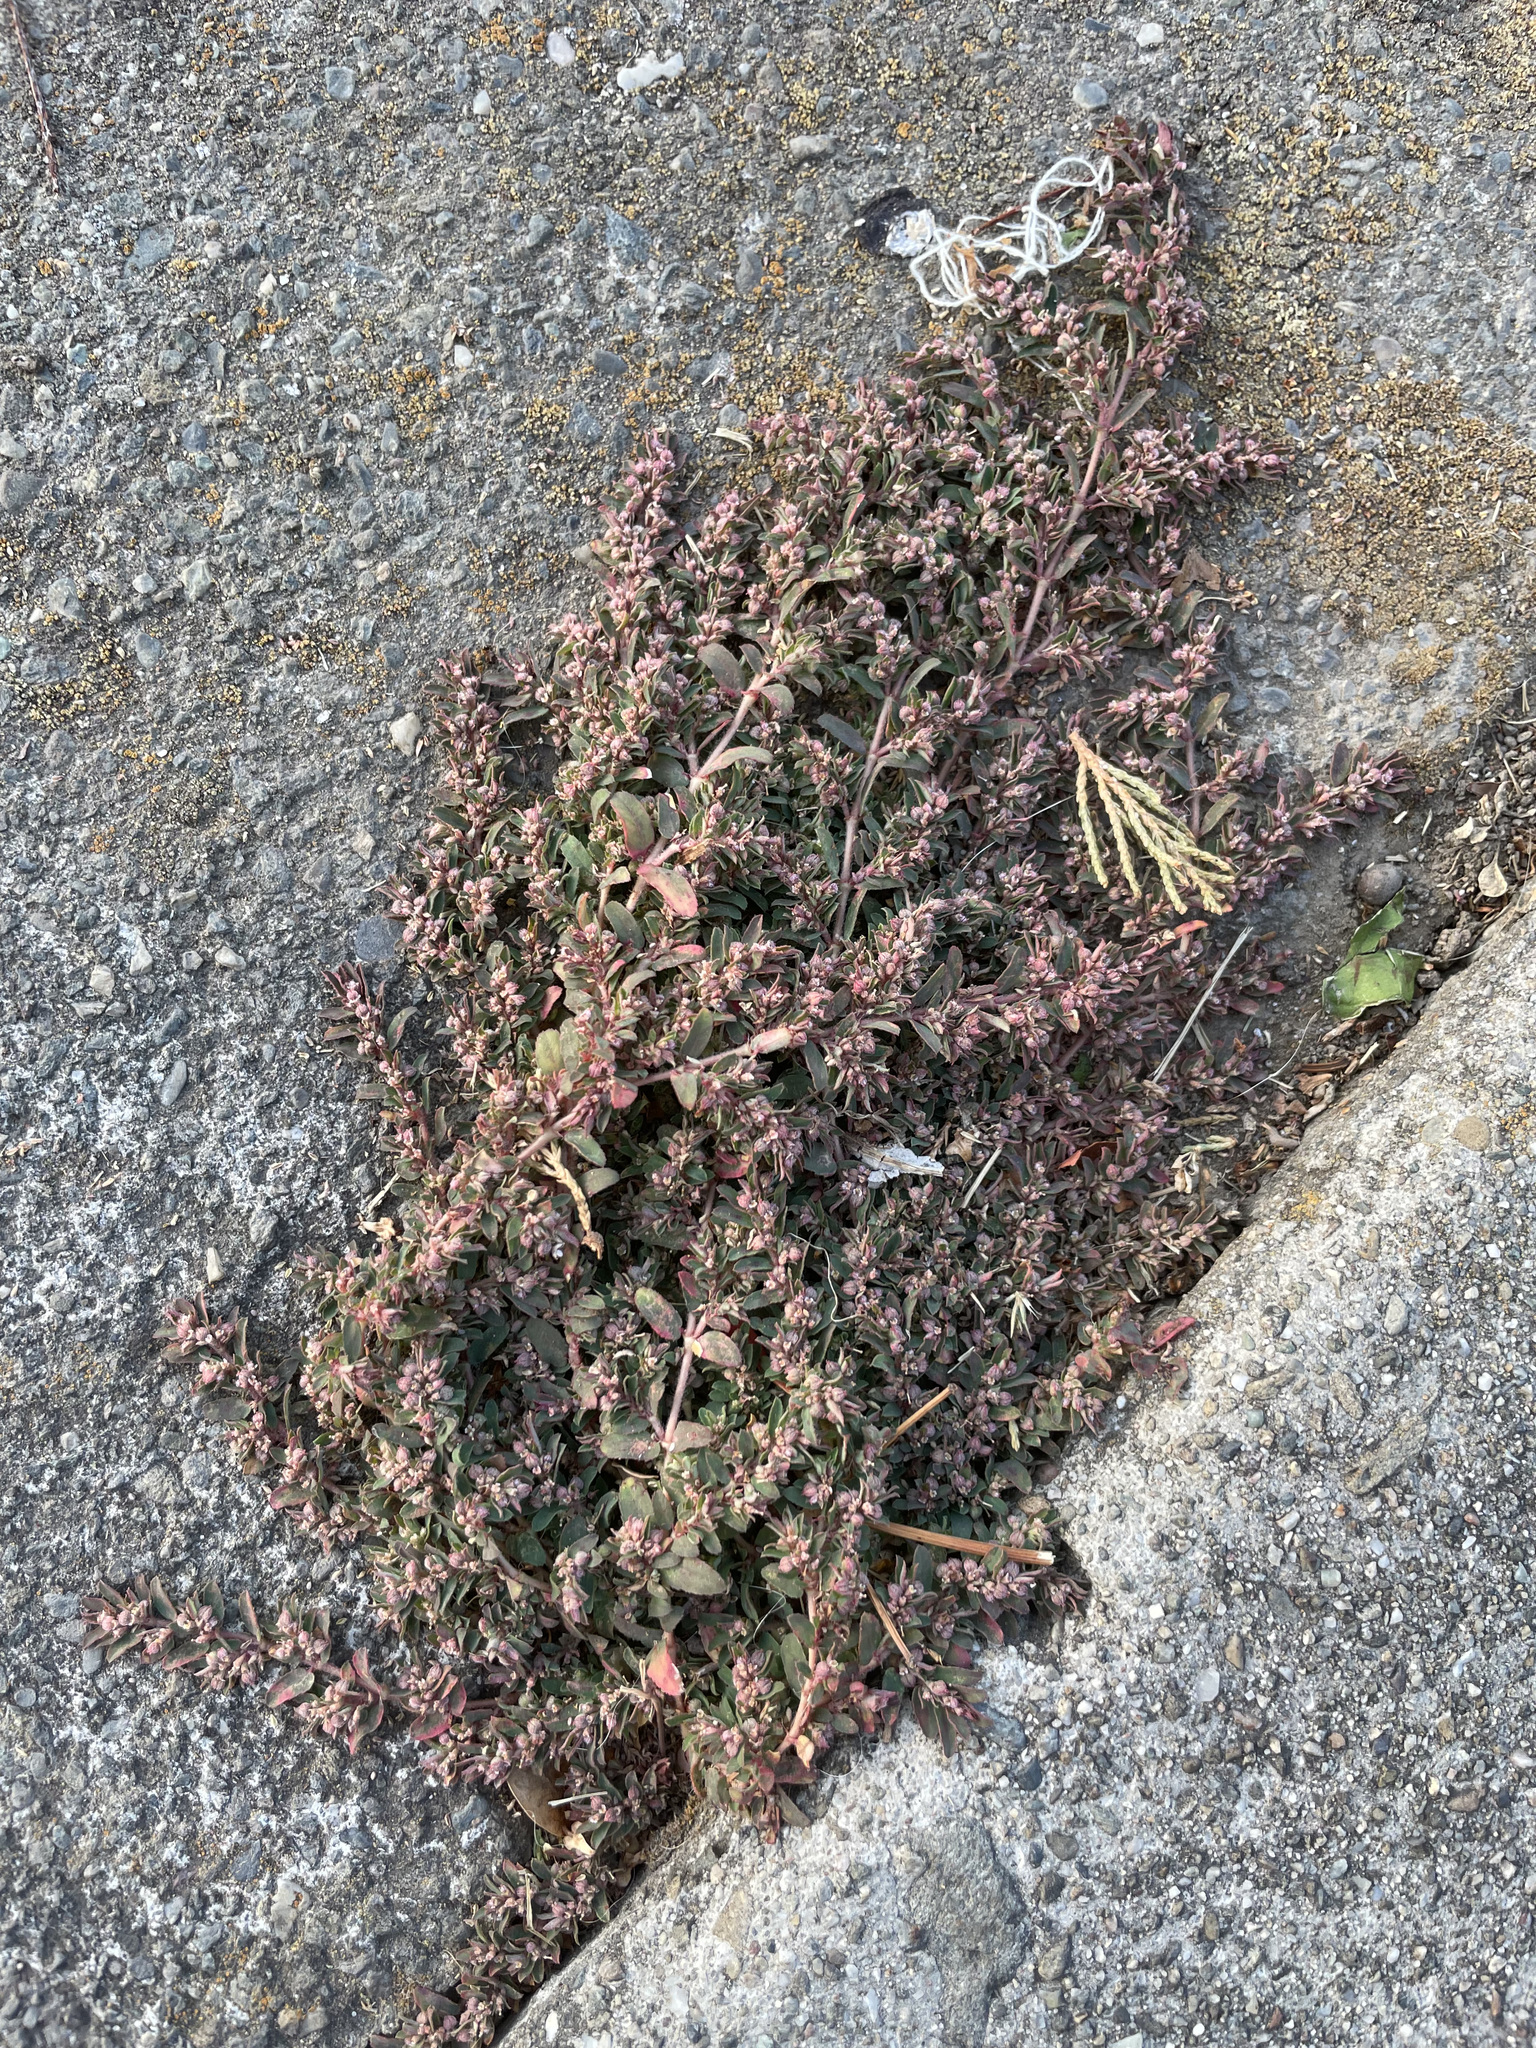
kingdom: Plantae
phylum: Tracheophyta
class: Magnoliopsida
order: Malpighiales
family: Euphorbiaceae
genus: Euphorbia
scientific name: Euphorbia maculata
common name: Spotted spurge
